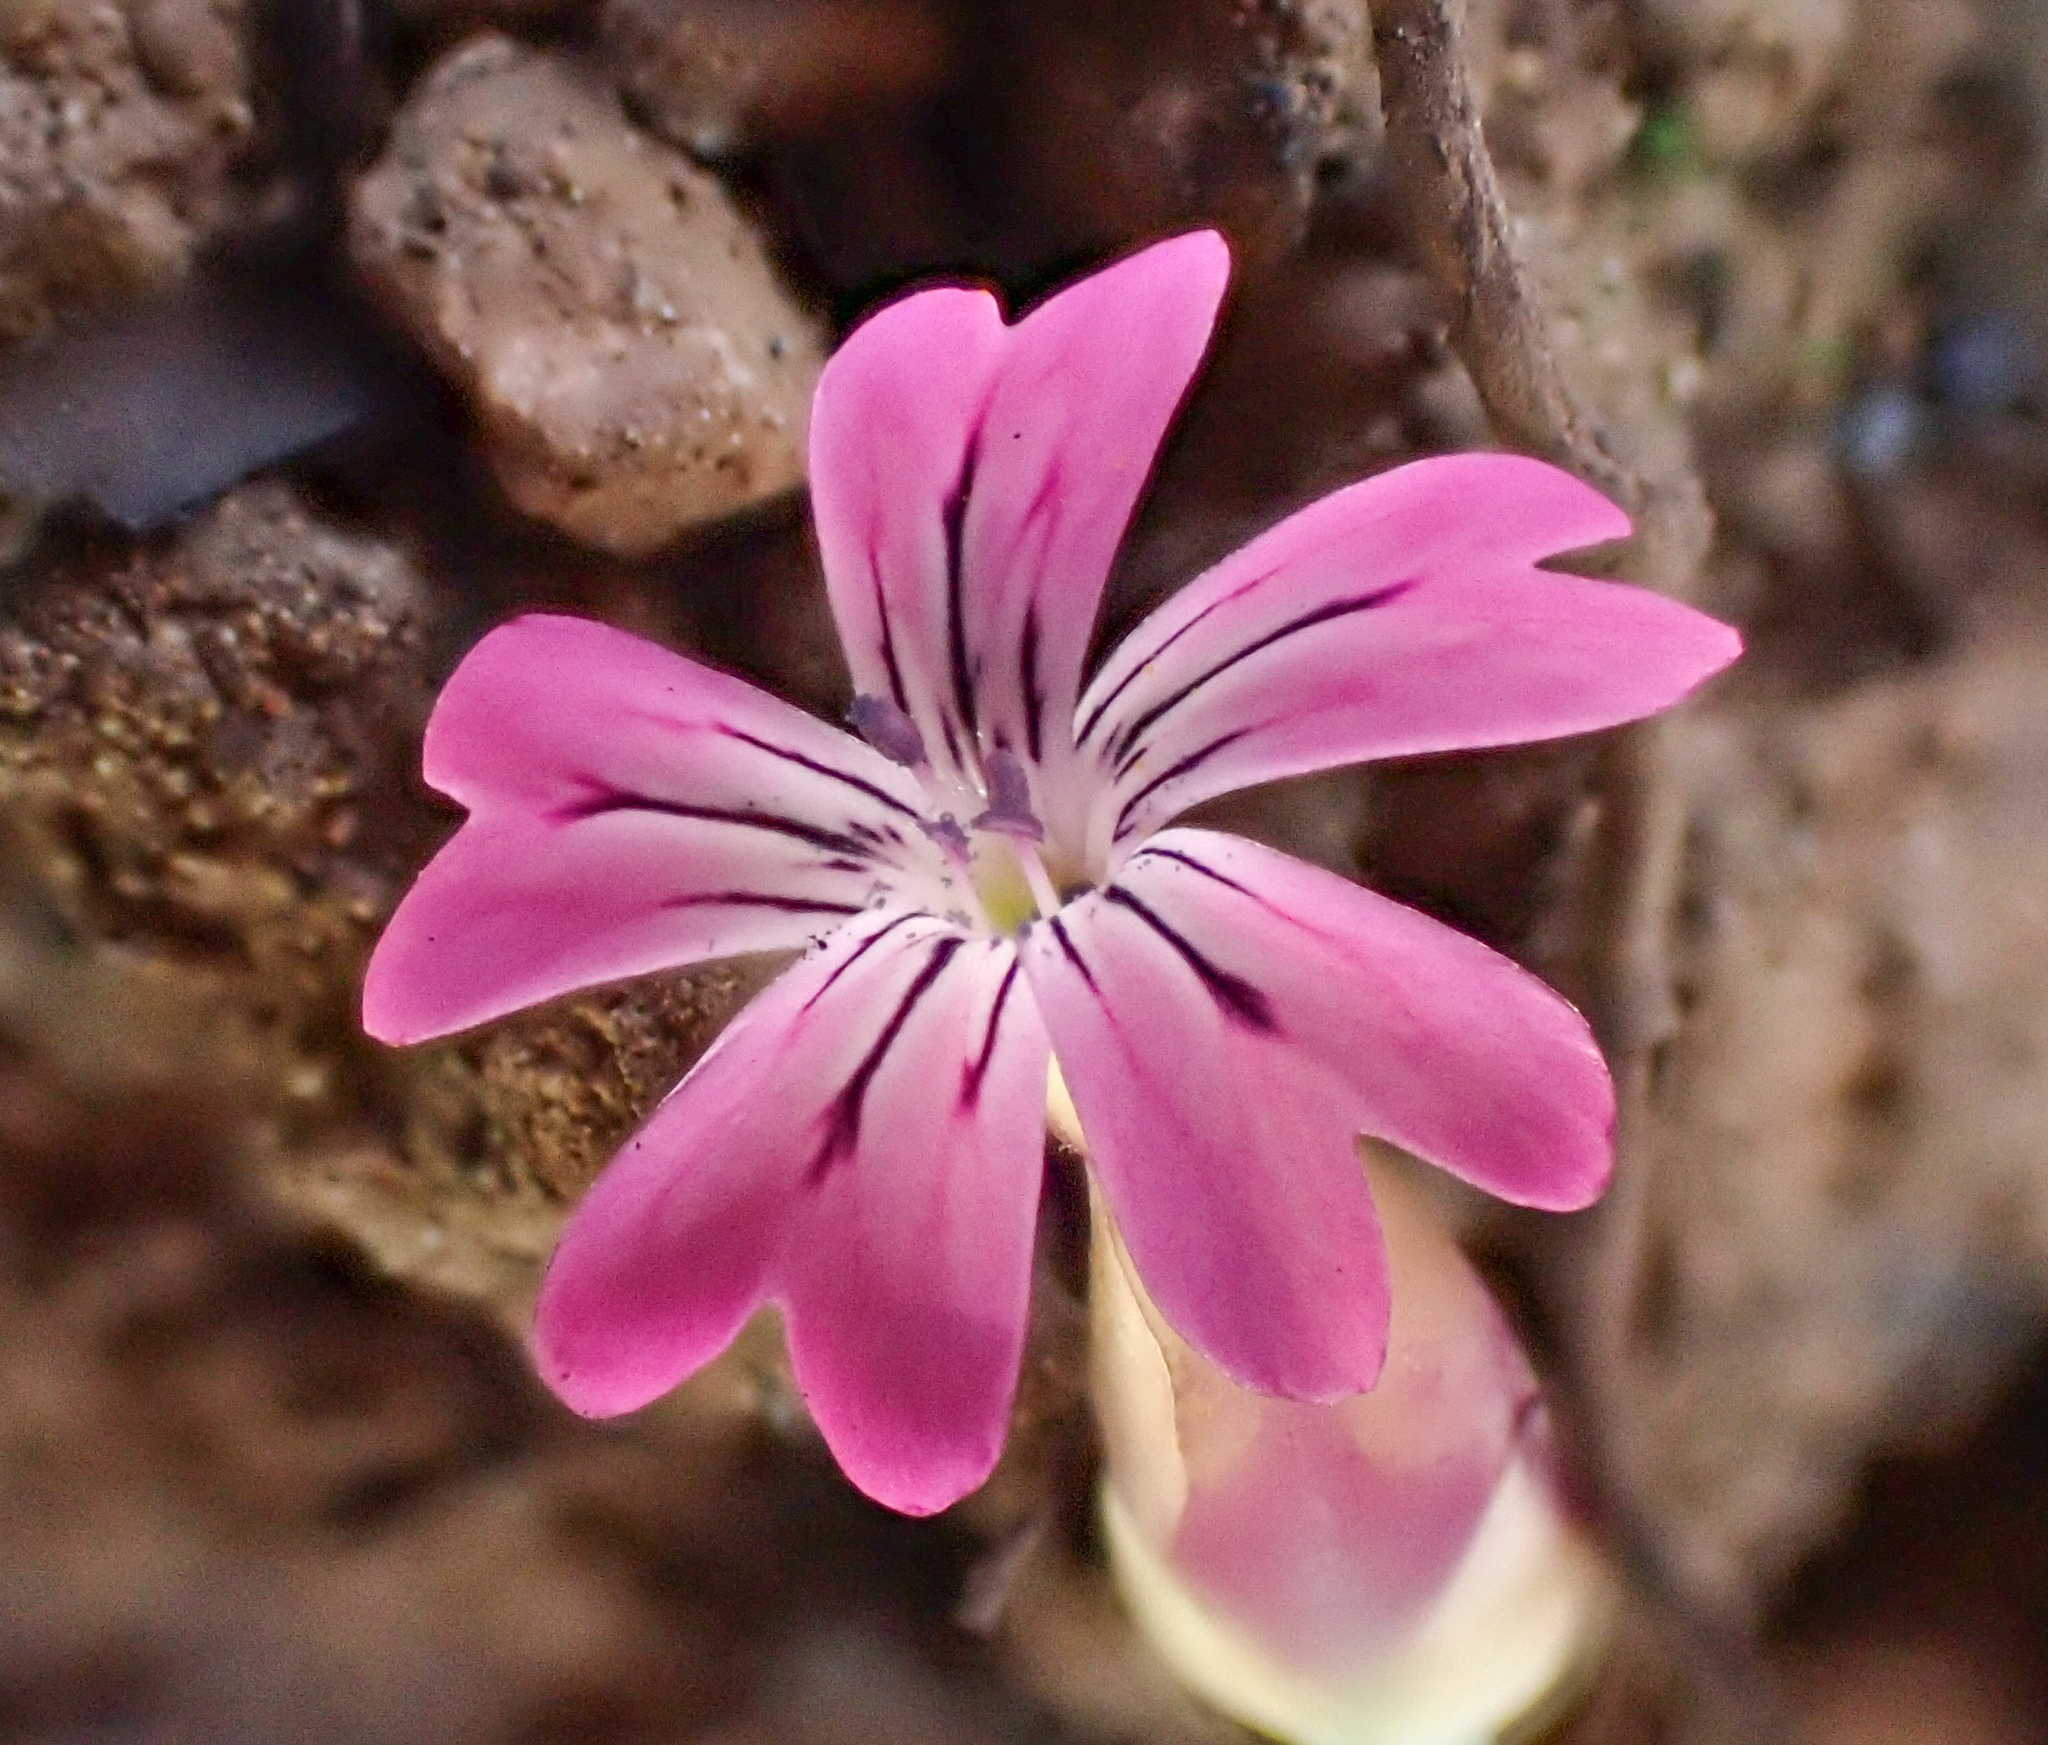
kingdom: Plantae
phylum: Tracheophyta
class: Magnoliopsida
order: Caryophyllales
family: Caryophyllaceae
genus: Petrorhagia
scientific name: Petrorhagia dubia
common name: Hairypink
